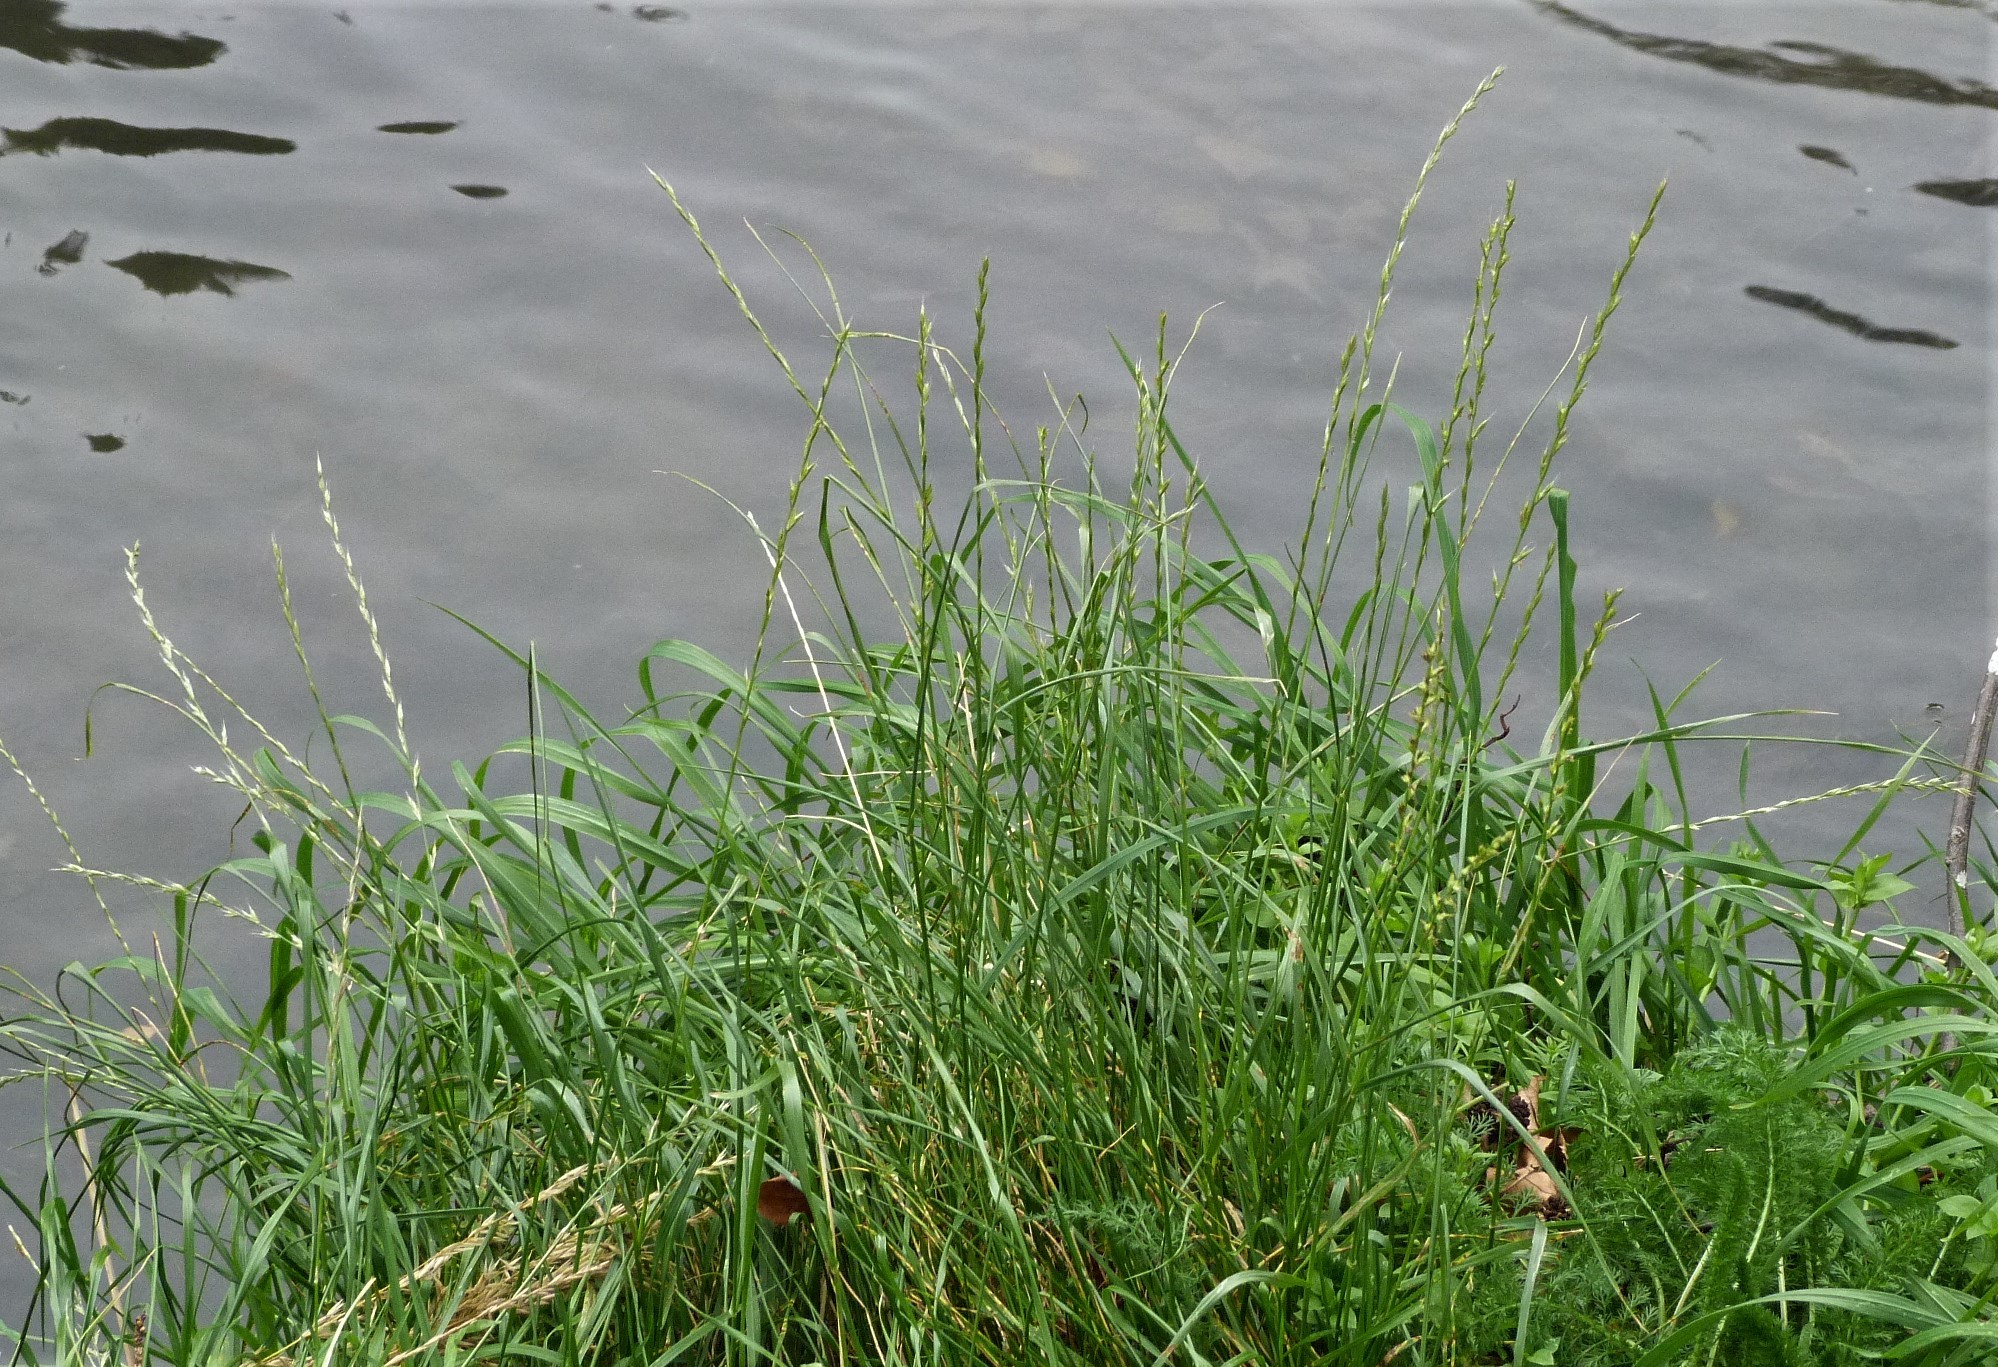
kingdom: Plantae
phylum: Tracheophyta
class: Liliopsida
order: Poales
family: Poaceae
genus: Lolium
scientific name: Lolium perenne
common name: Perennial ryegrass
